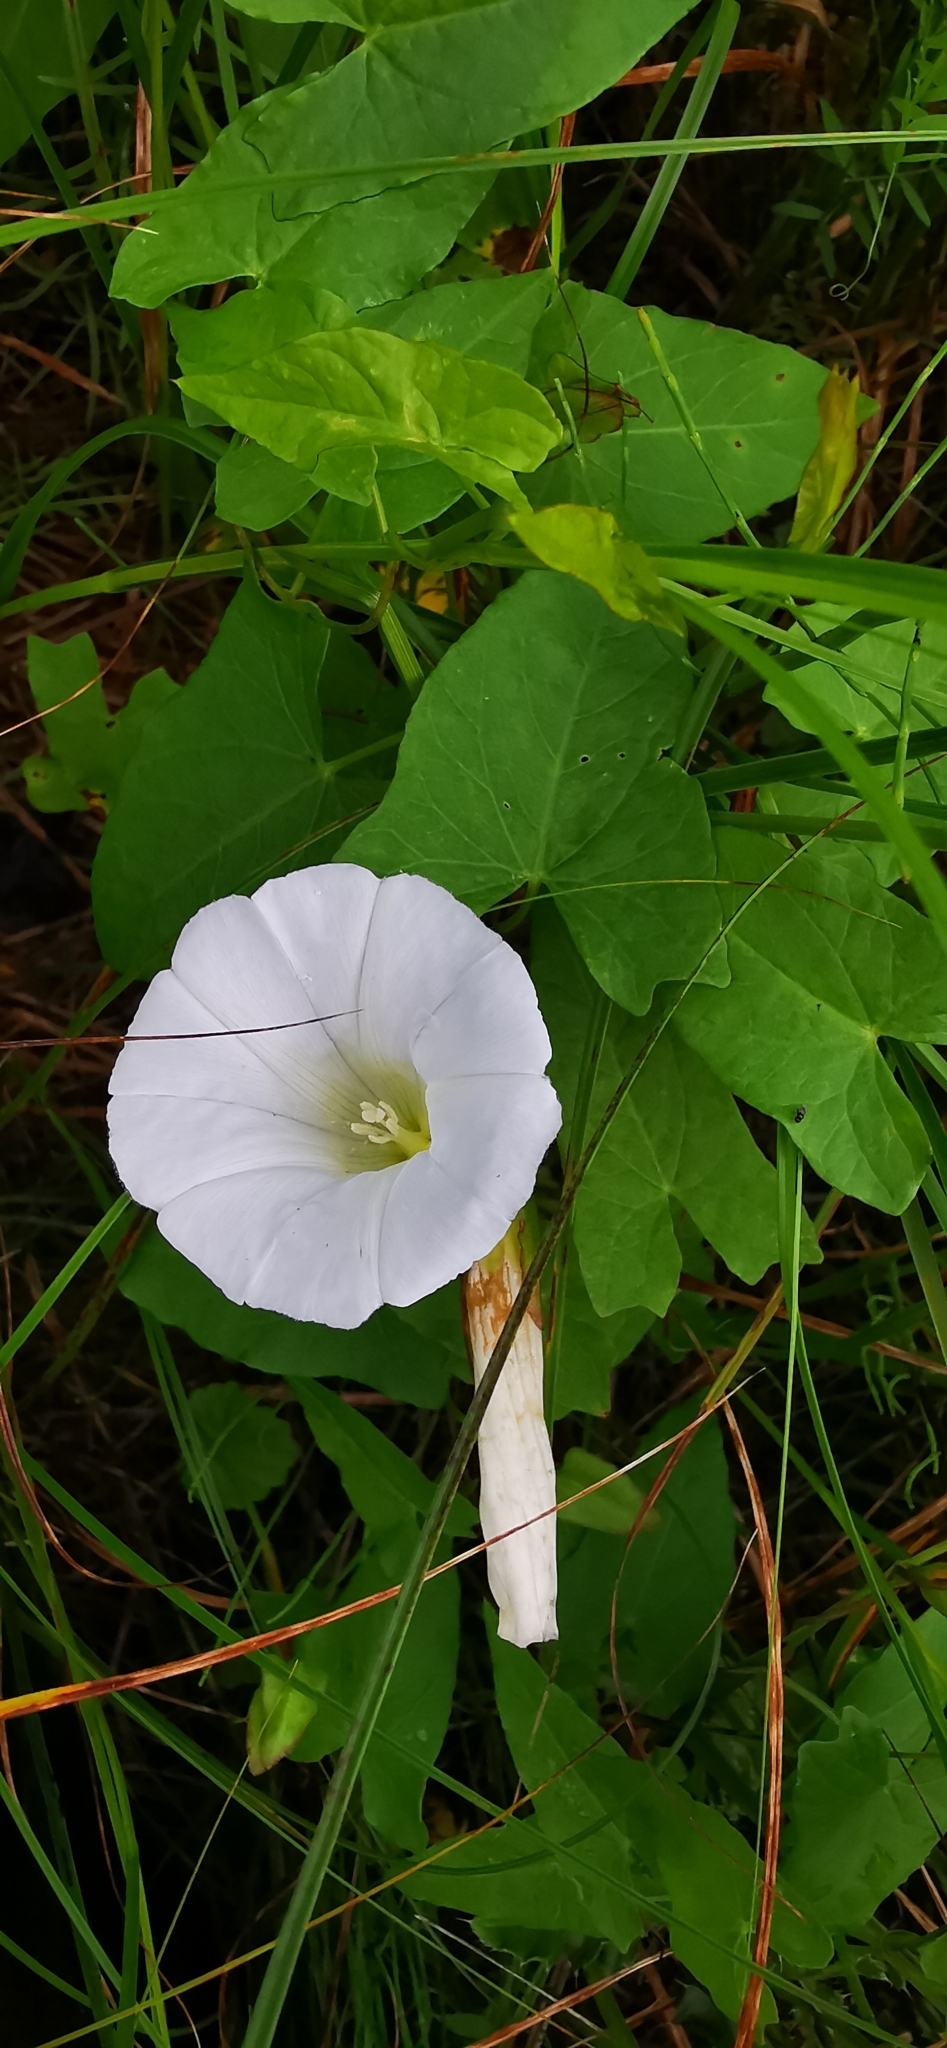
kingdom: Plantae
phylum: Tracheophyta
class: Magnoliopsida
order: Solanales
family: Convolvulaceae
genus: Calystegia
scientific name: Calystegia sepium
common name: Hedge bindweed
